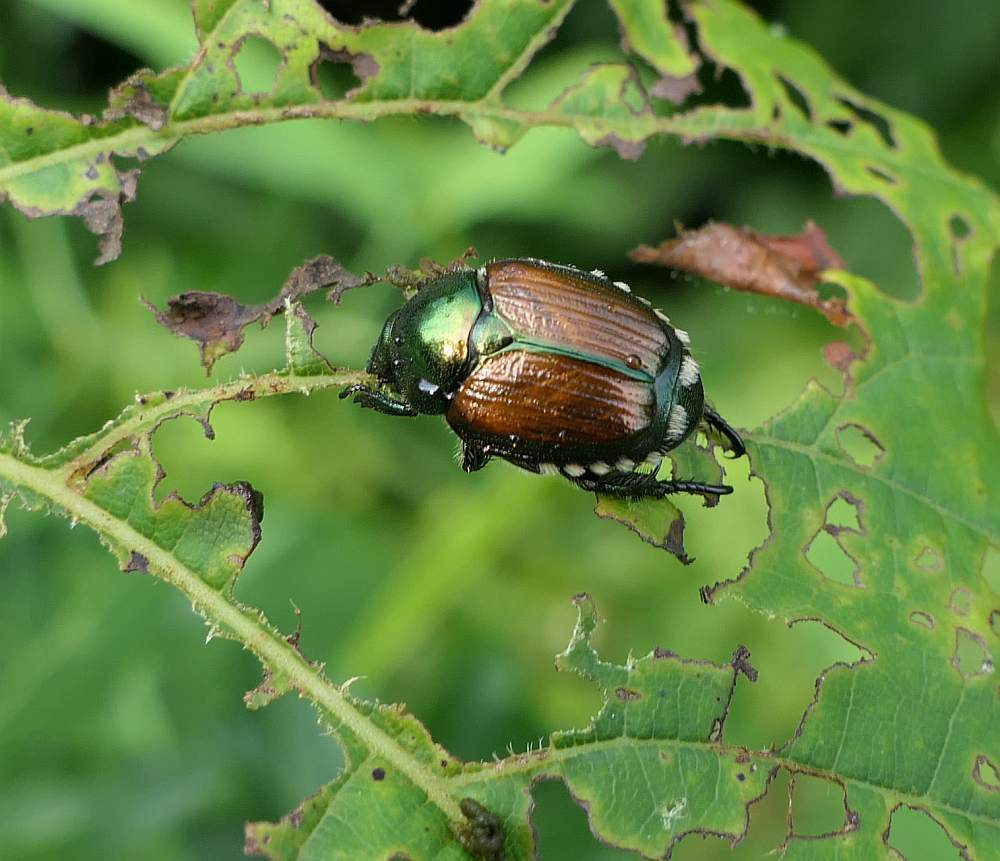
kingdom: Animalia
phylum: Arthropoda
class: Insecta
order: Coleoptera
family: Scarabaeidae
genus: Popillia
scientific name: Popillia japonica
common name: Japanese beetle
